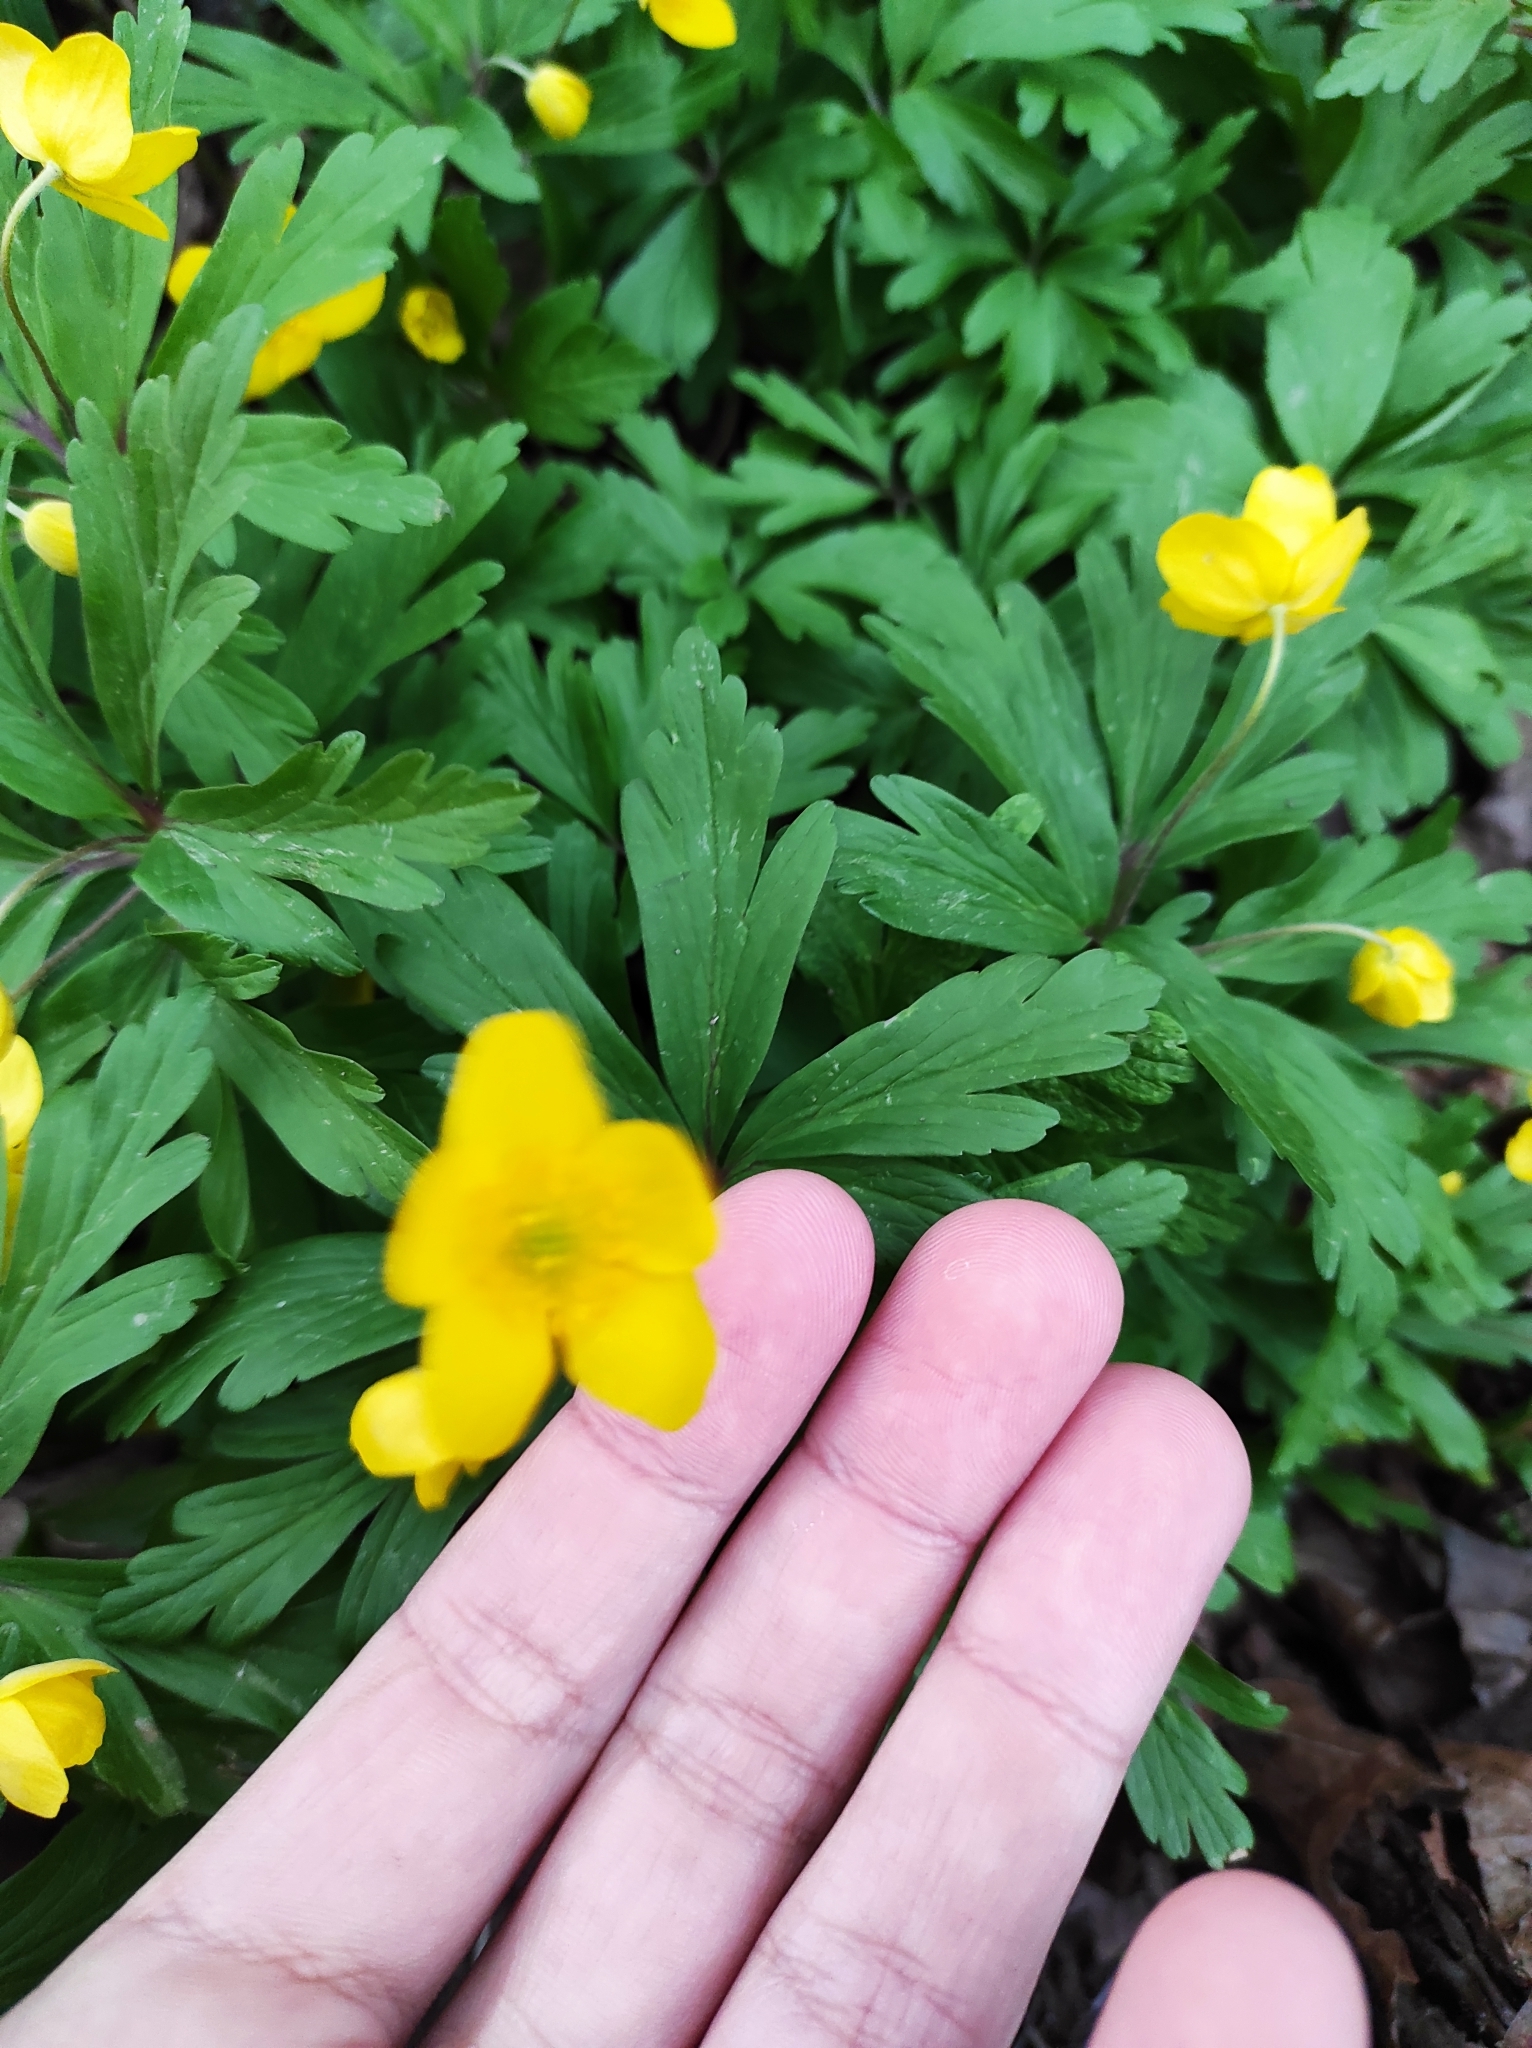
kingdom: Plantae
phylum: Tracheophyta
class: Magnoliopsida
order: Ranunculales
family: Ranunculaceae
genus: Anemone
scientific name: Anemone ranunculoides
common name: Yellow anemone
